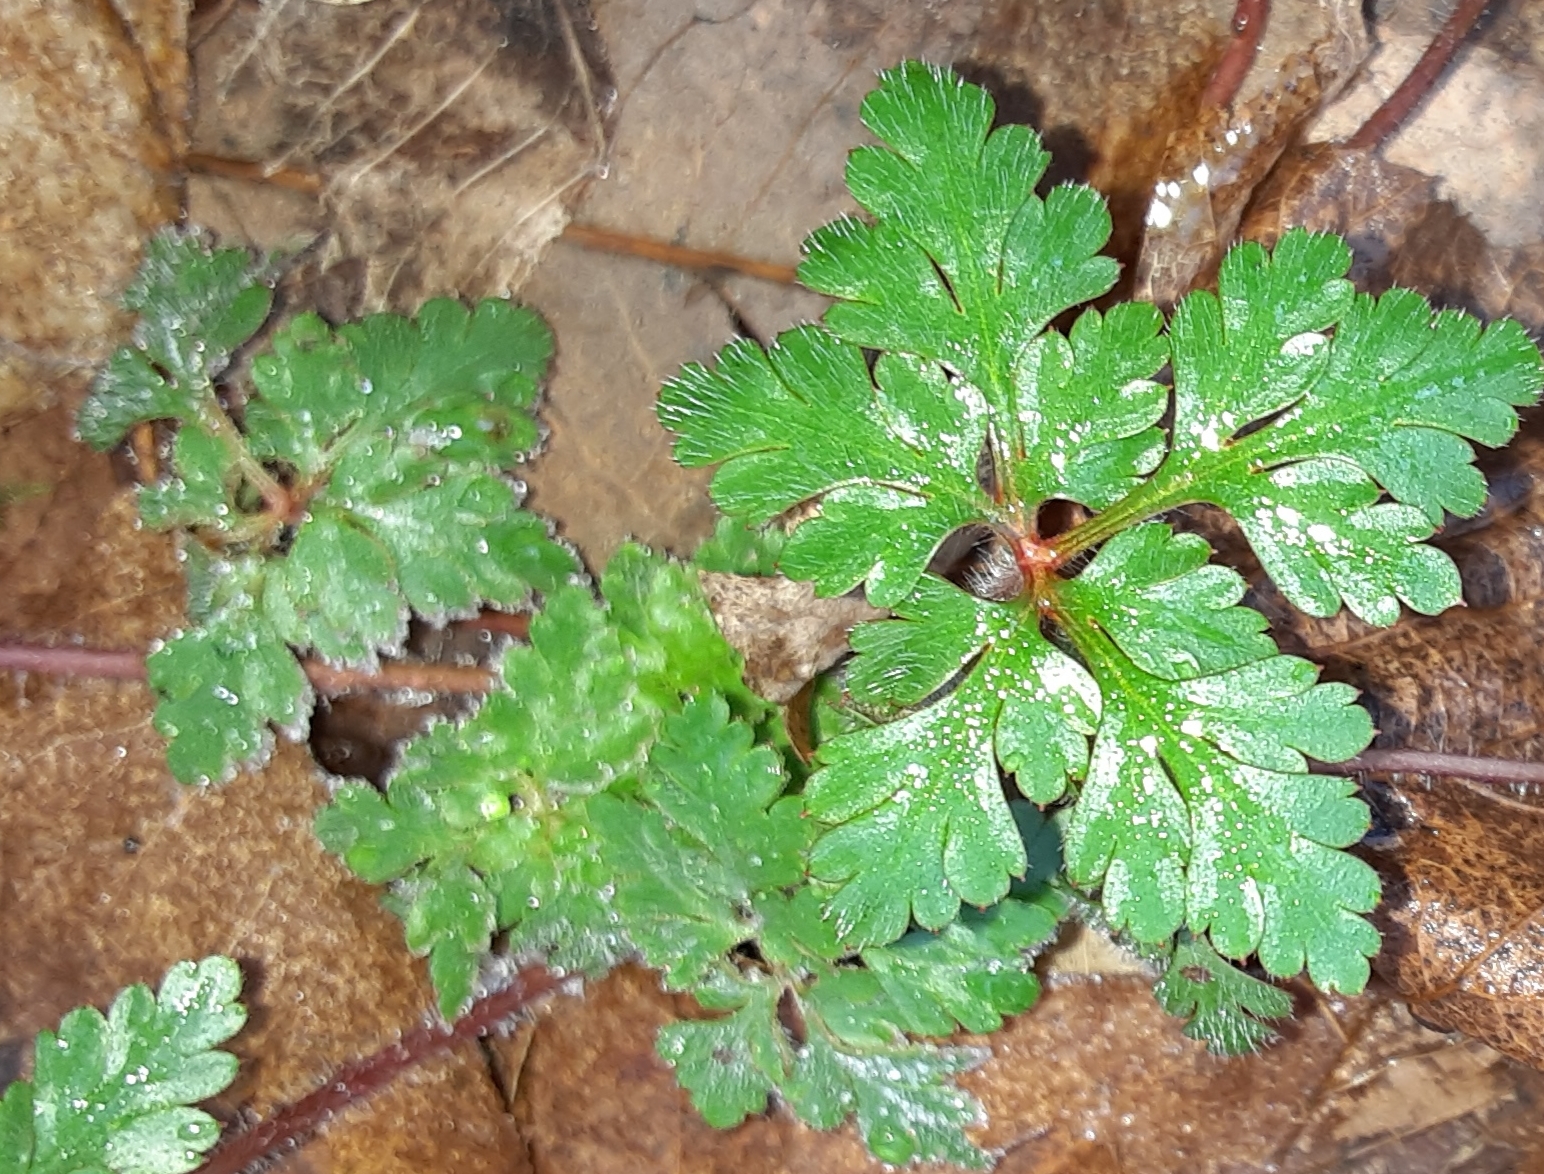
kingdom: Plantae
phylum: Tracheophyta
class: Magnoliopsida
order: Geraniales
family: Geraniaceae
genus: Geranium
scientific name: Geranium robertianum
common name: Herb-robert
